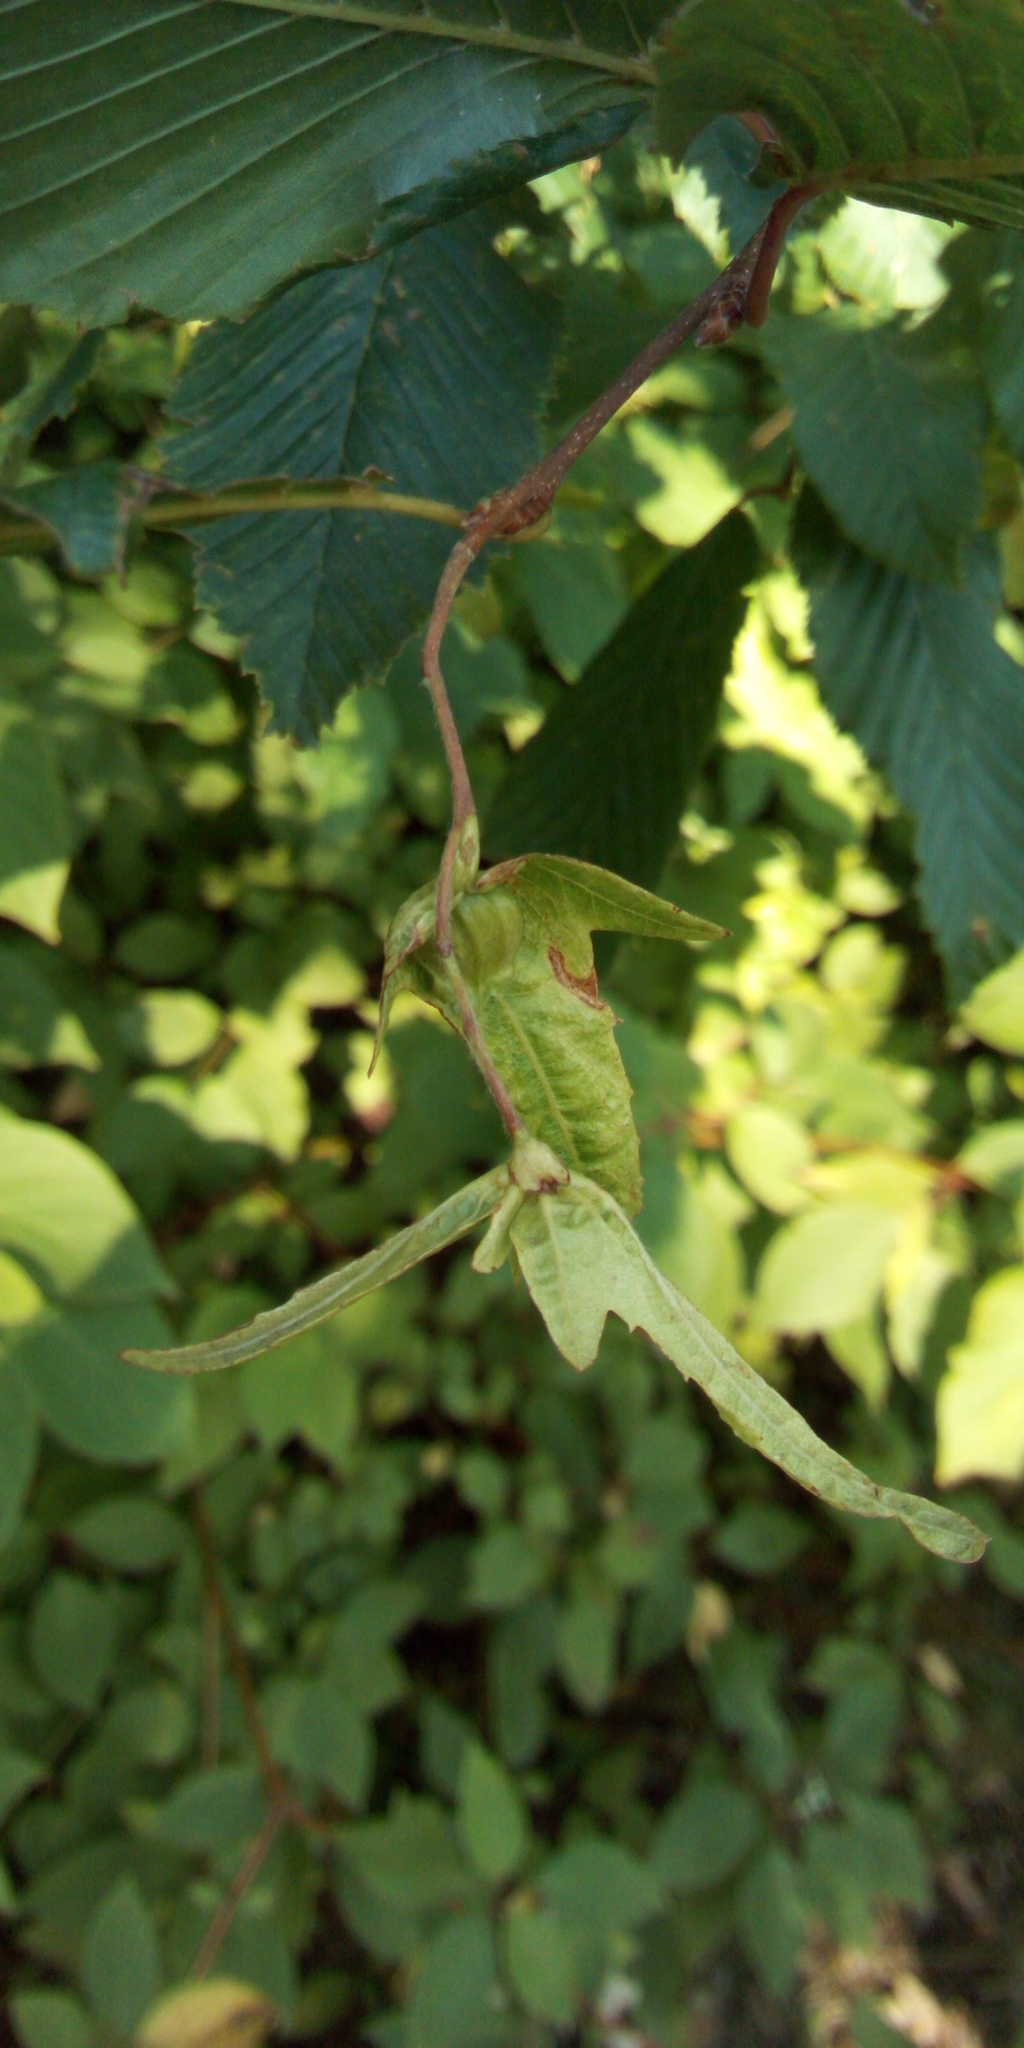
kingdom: Plantae
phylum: Tracheophyta
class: Magnoliopsida
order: Fagales
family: Betulaceae
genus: Carpinus
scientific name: Carpinus betulus
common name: Hornbeam
